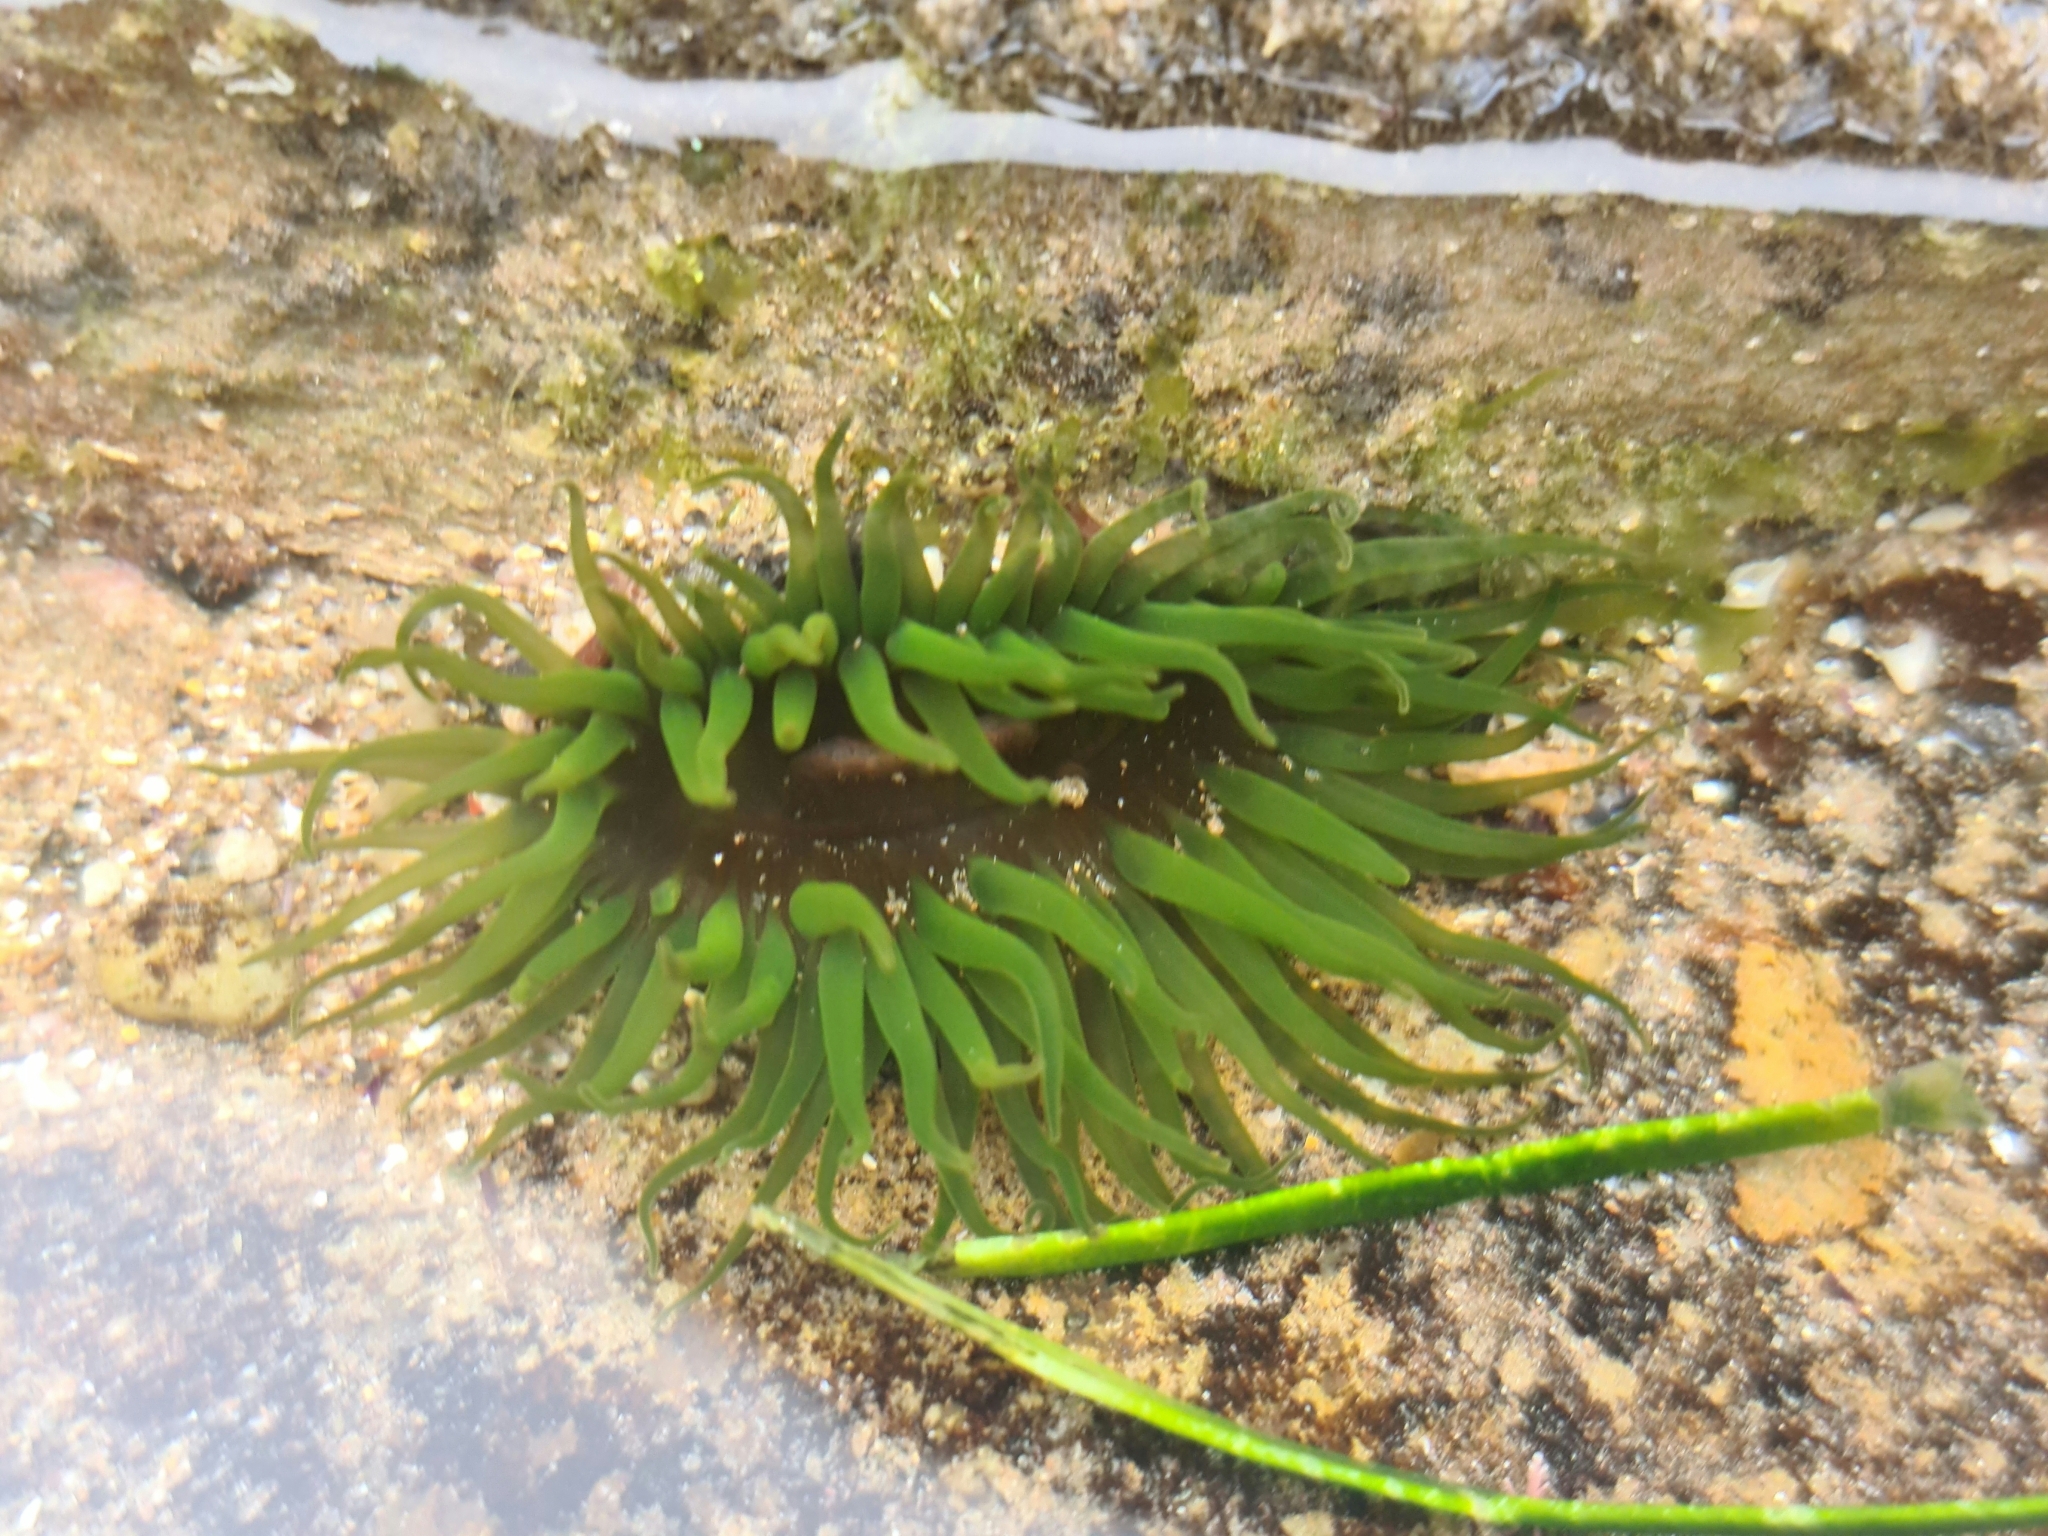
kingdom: Animalia
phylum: Cnidaria
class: Anthozoa
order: Actiniaria
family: Actiniidae
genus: Aulactinia
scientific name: Aulactinia veratra
